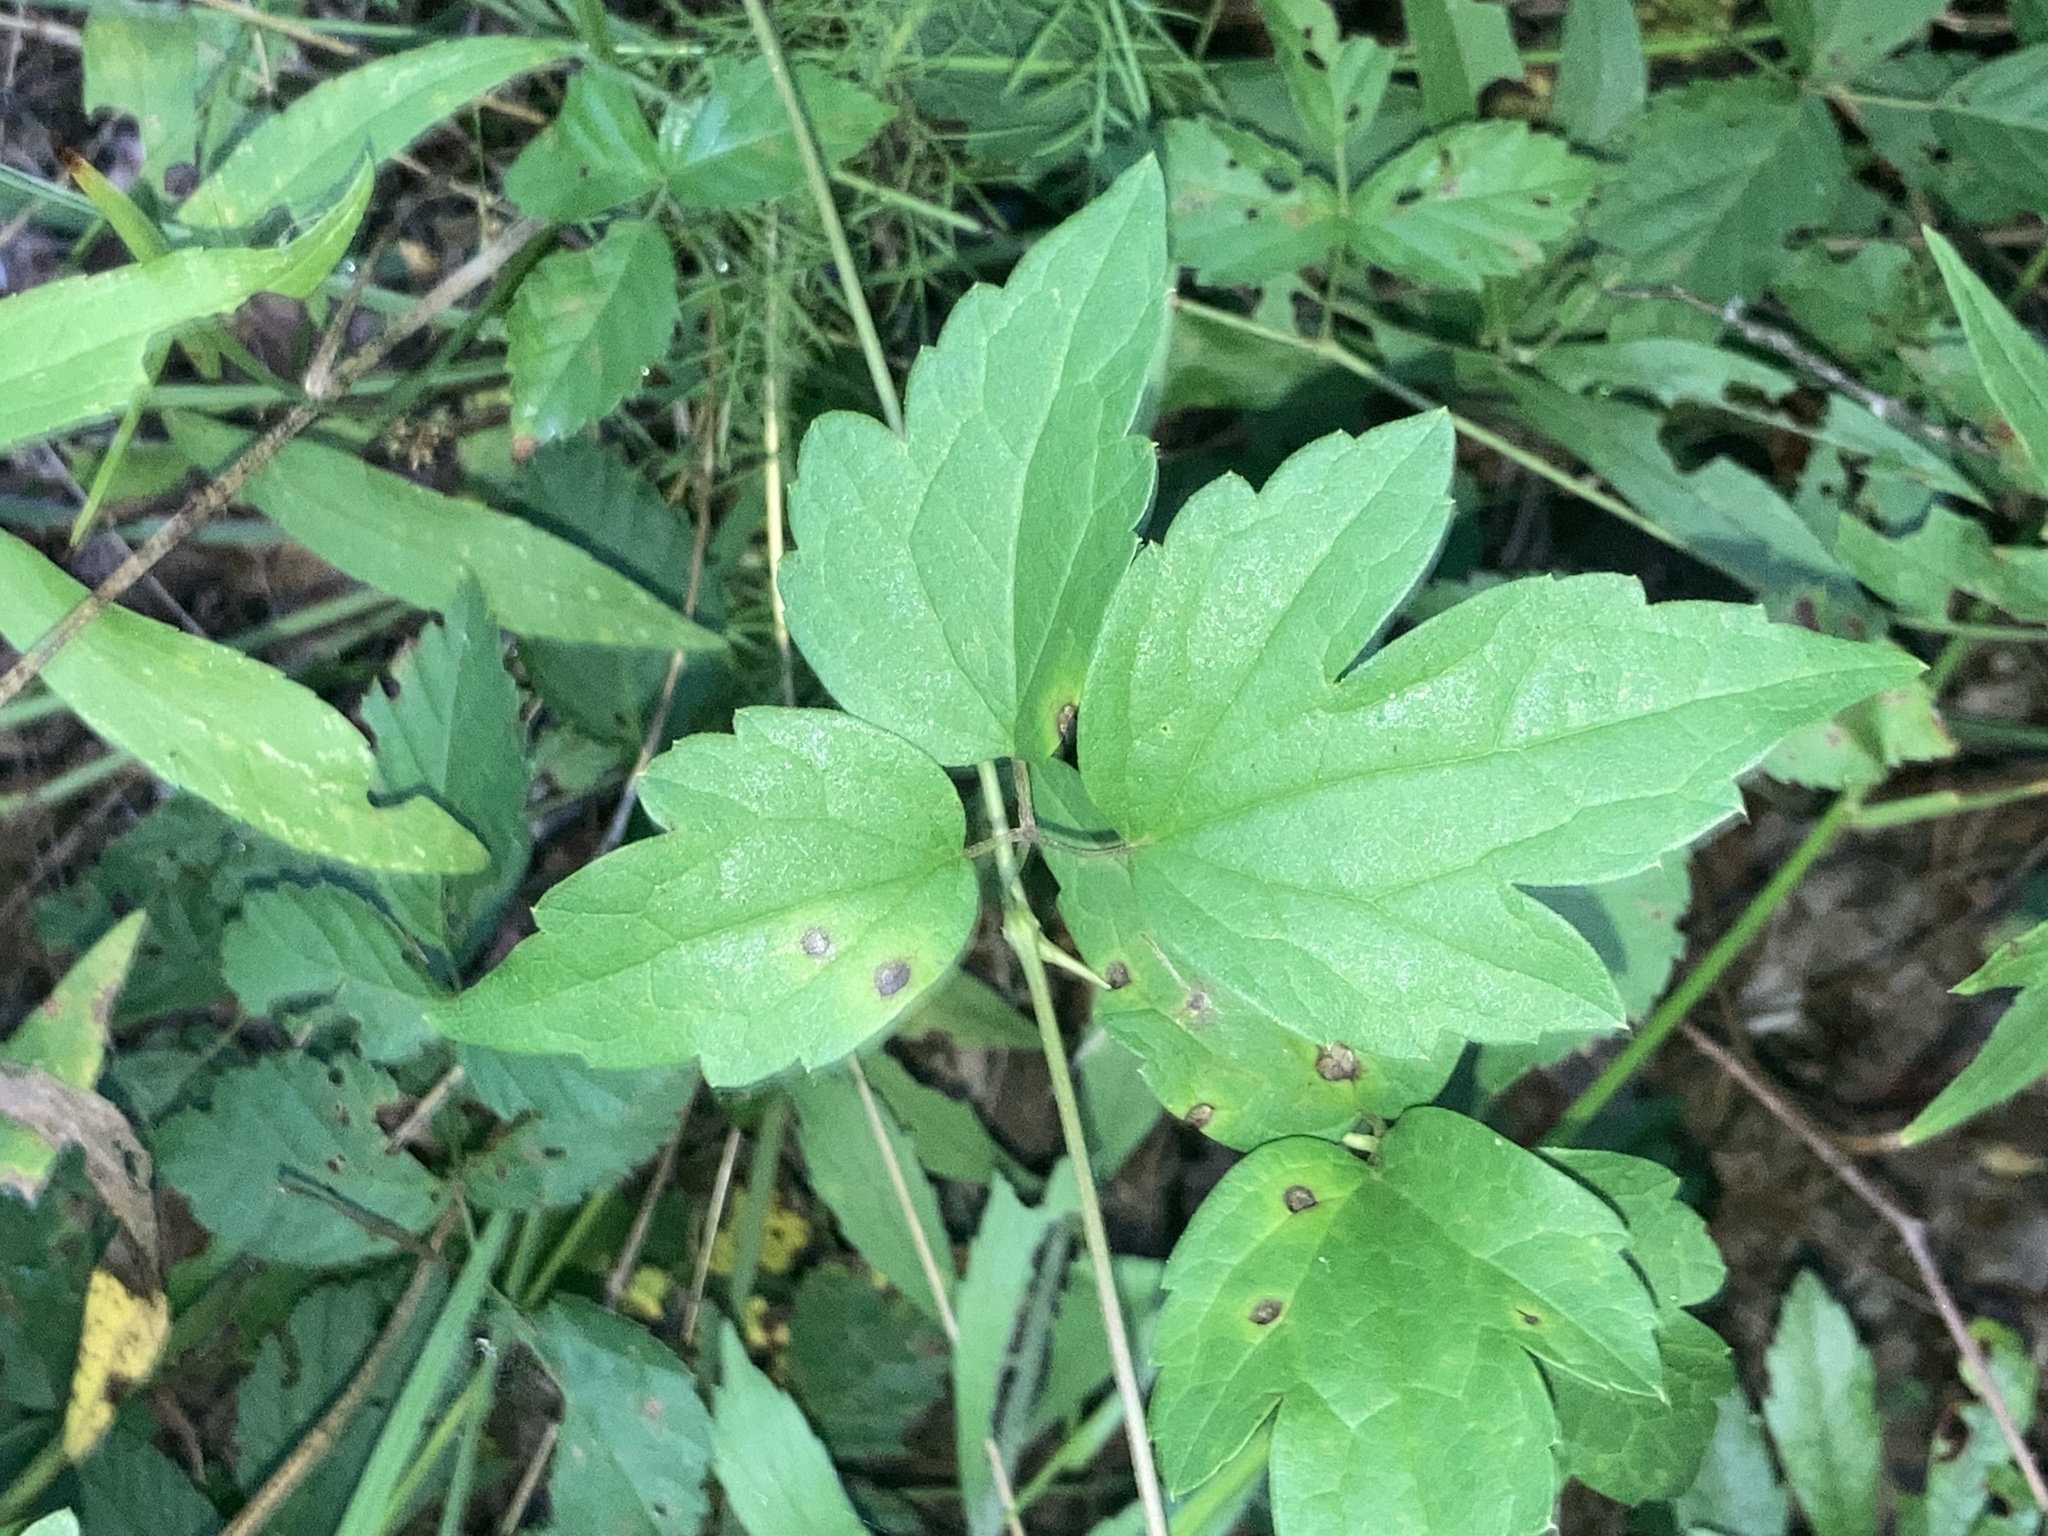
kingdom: Plantae
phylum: Tracheophyta
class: Magnoliopsida
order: Ranunculales
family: Ranunculaceae
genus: Clematis
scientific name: Clematis virginiana
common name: Virgin's-bower
